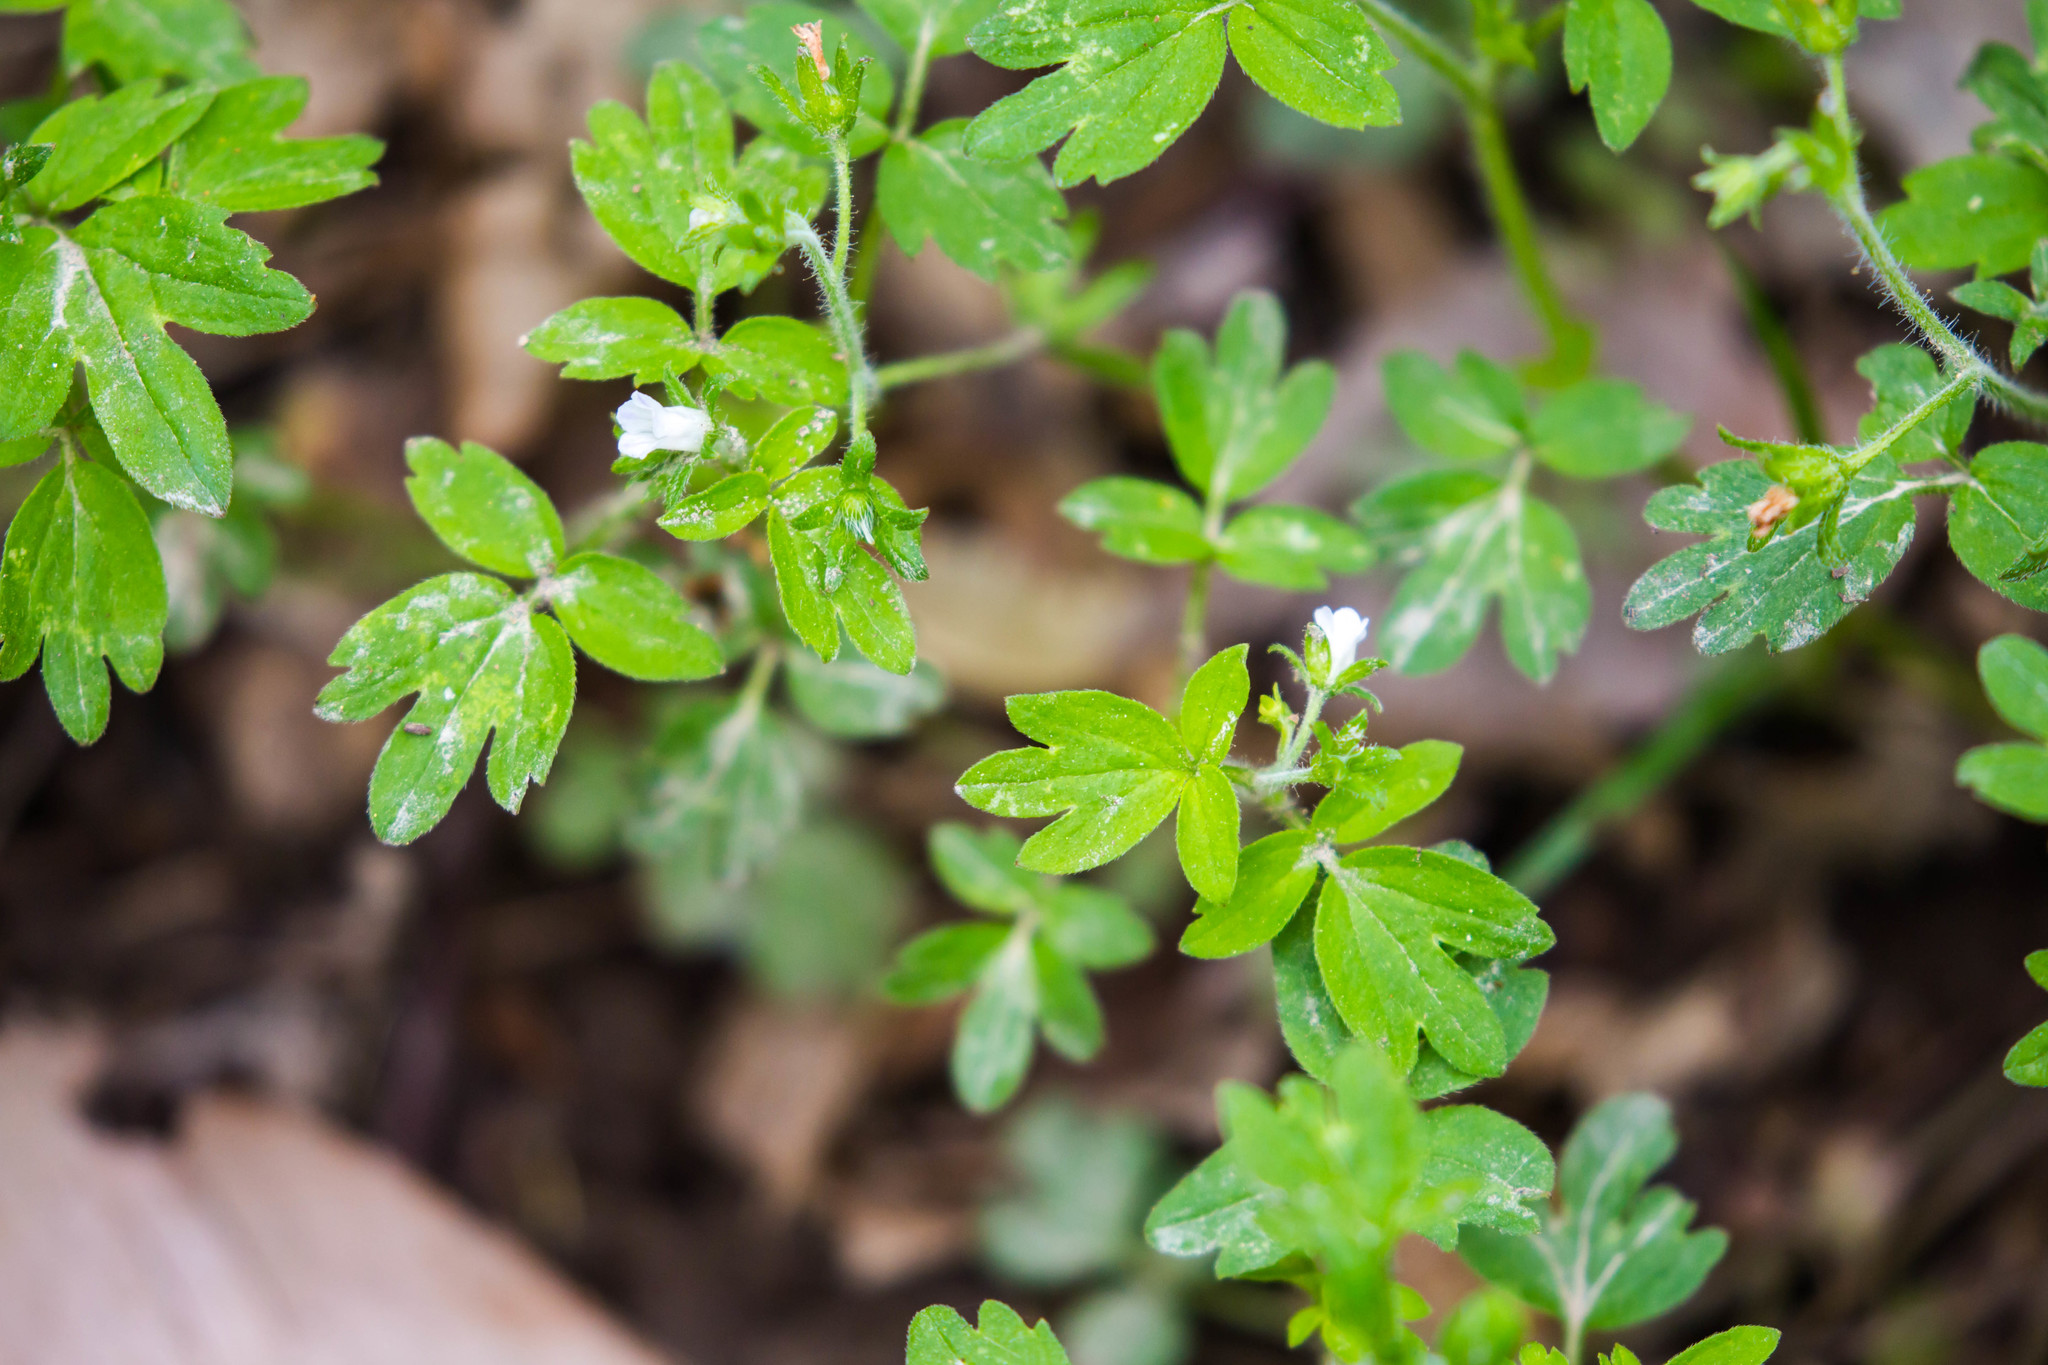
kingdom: Plantae
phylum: Tracheophyta
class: Magnoliopsida
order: Boraginales
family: Hydrophyllaceae
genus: Phacelia
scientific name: Phacelia ranunculacea
